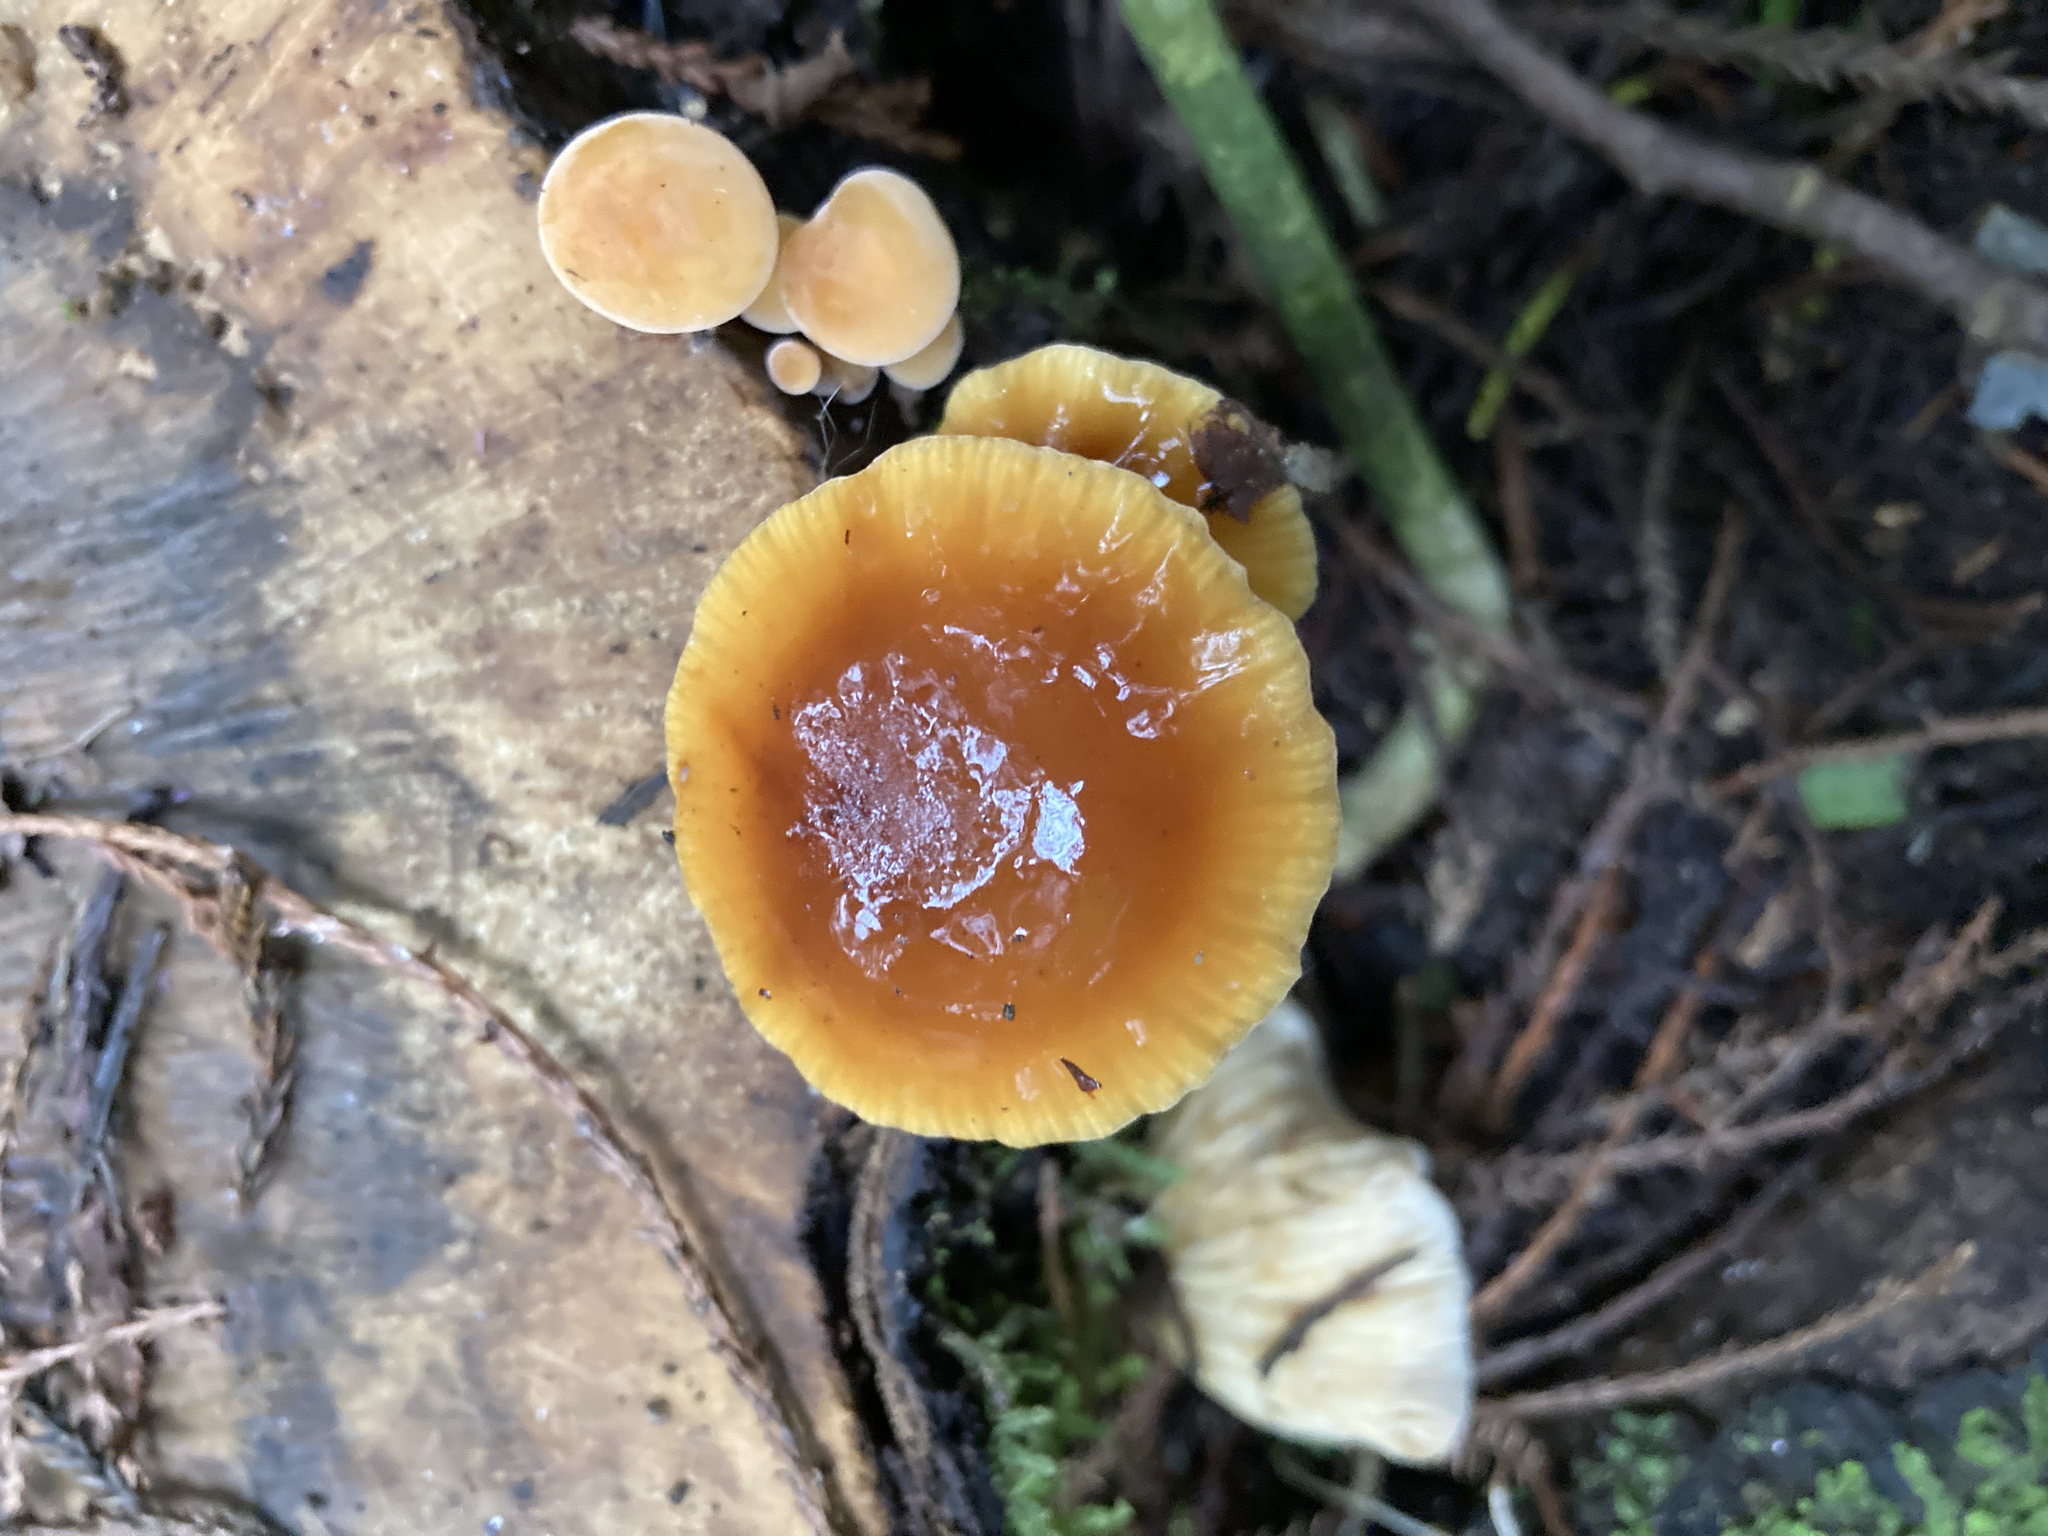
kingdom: Fungi
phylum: Basidiomycota
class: Agaricomycetes
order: Agaricales
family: Physalacriaceae
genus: Flammulina
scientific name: Flammulina velutipes
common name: Velvet shank
